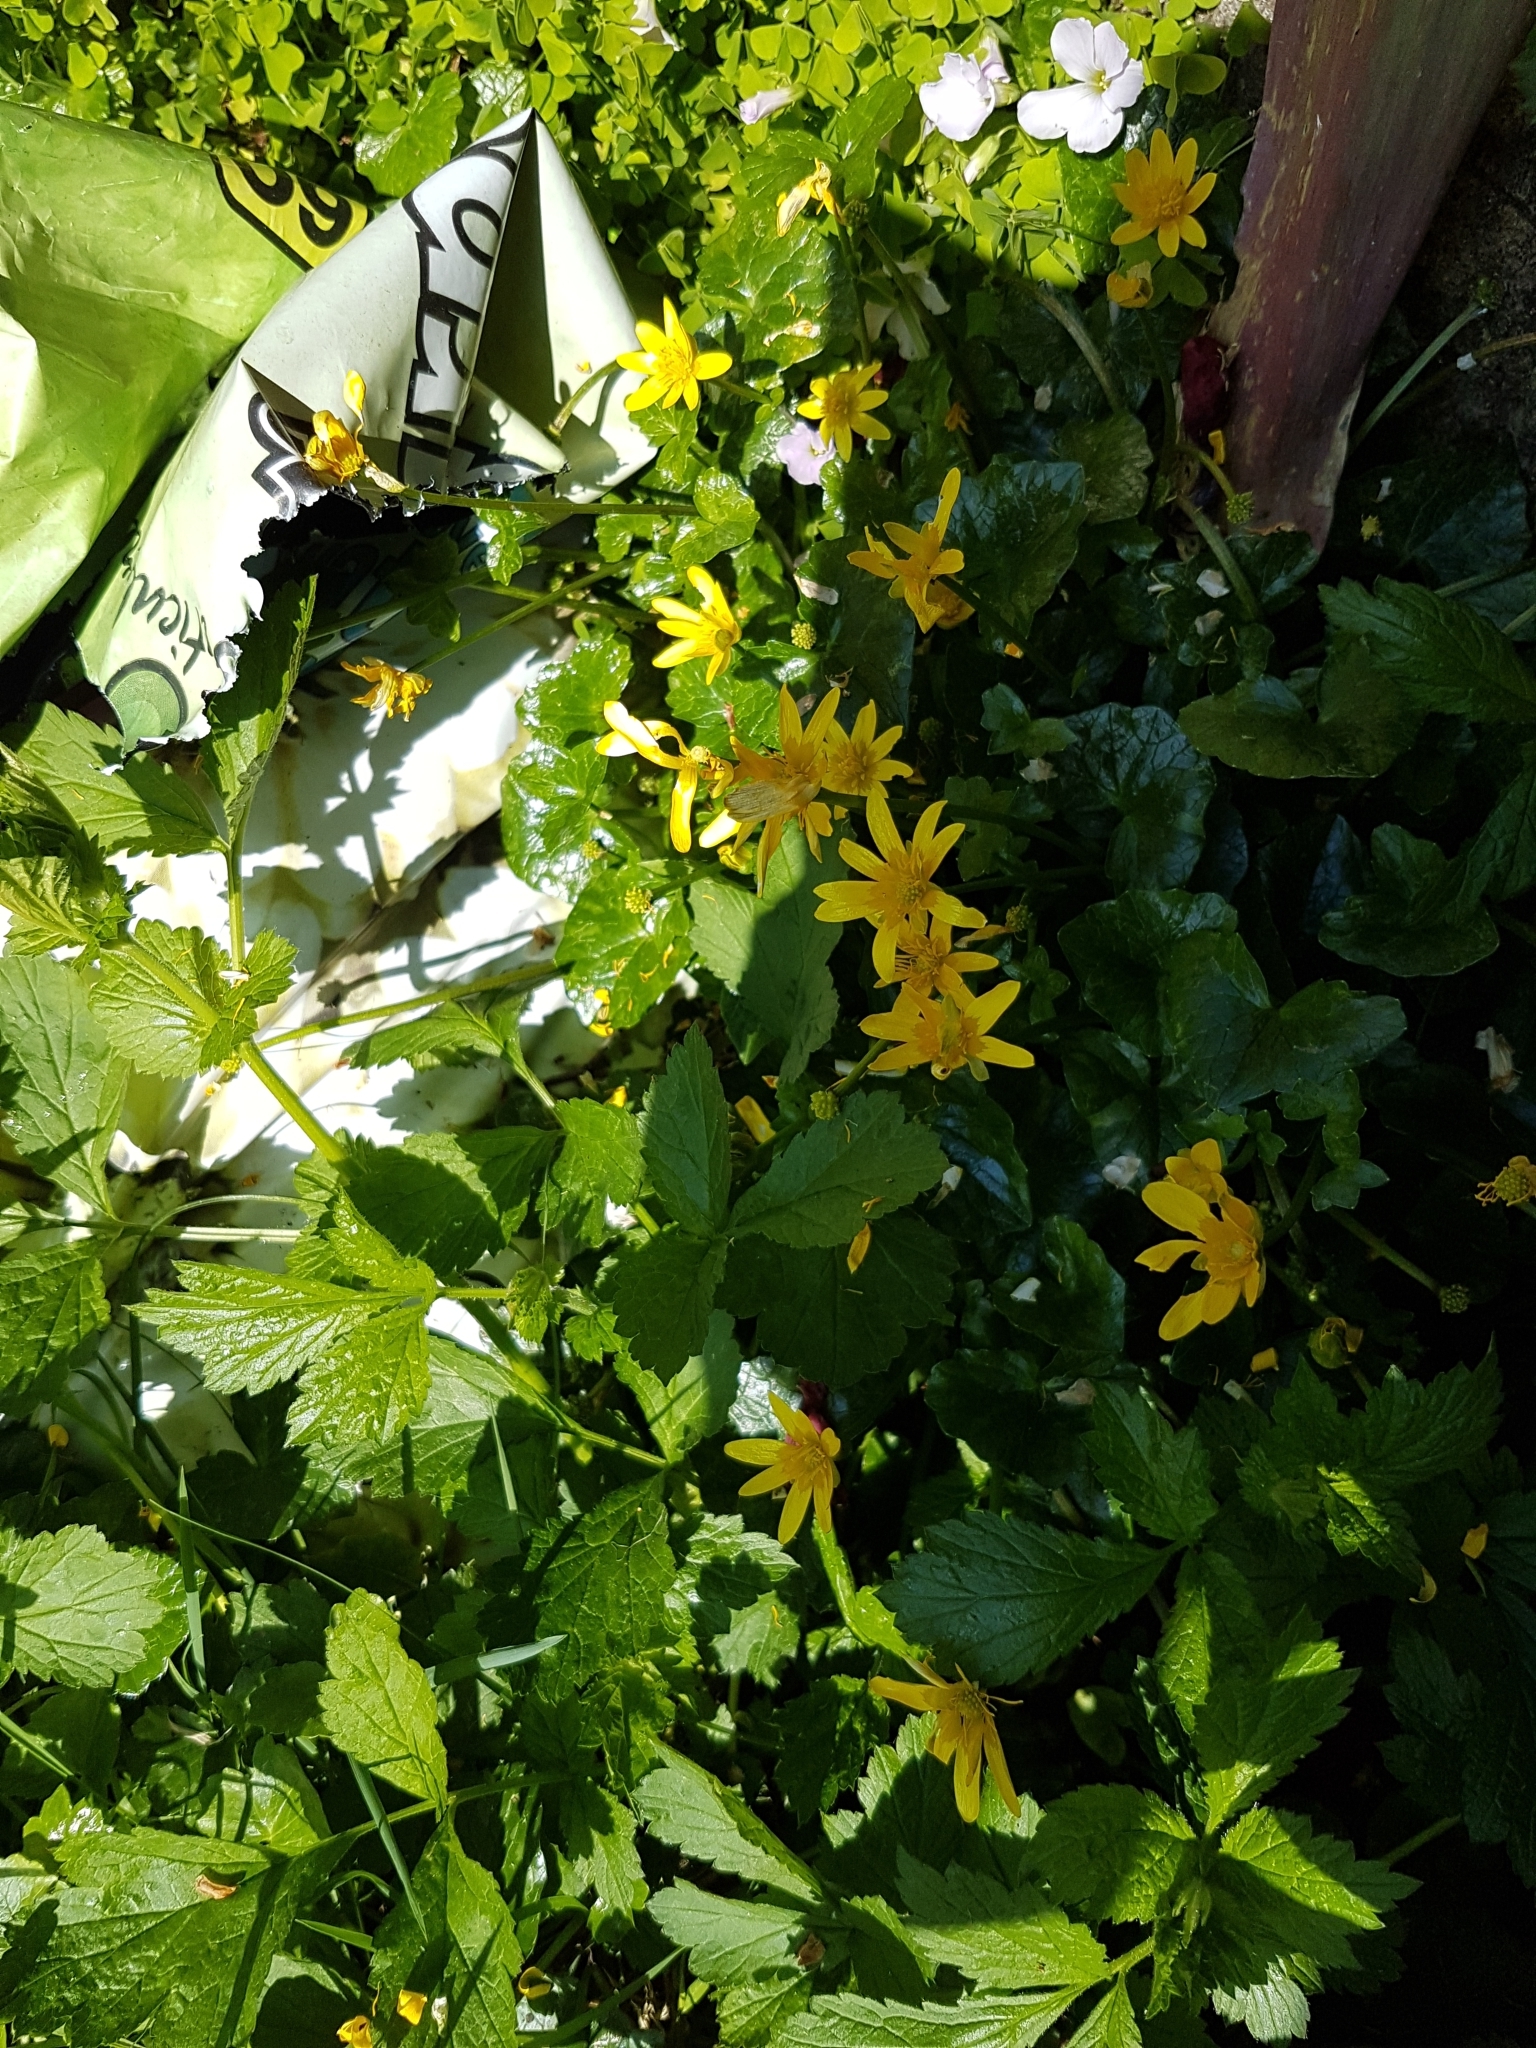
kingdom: Plantae
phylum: Tracheophyta
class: Magnoliopsida
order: Ranunculales
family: Ranunculaceae
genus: Ficaria
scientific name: Ficaria verna
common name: Lesser celandine
